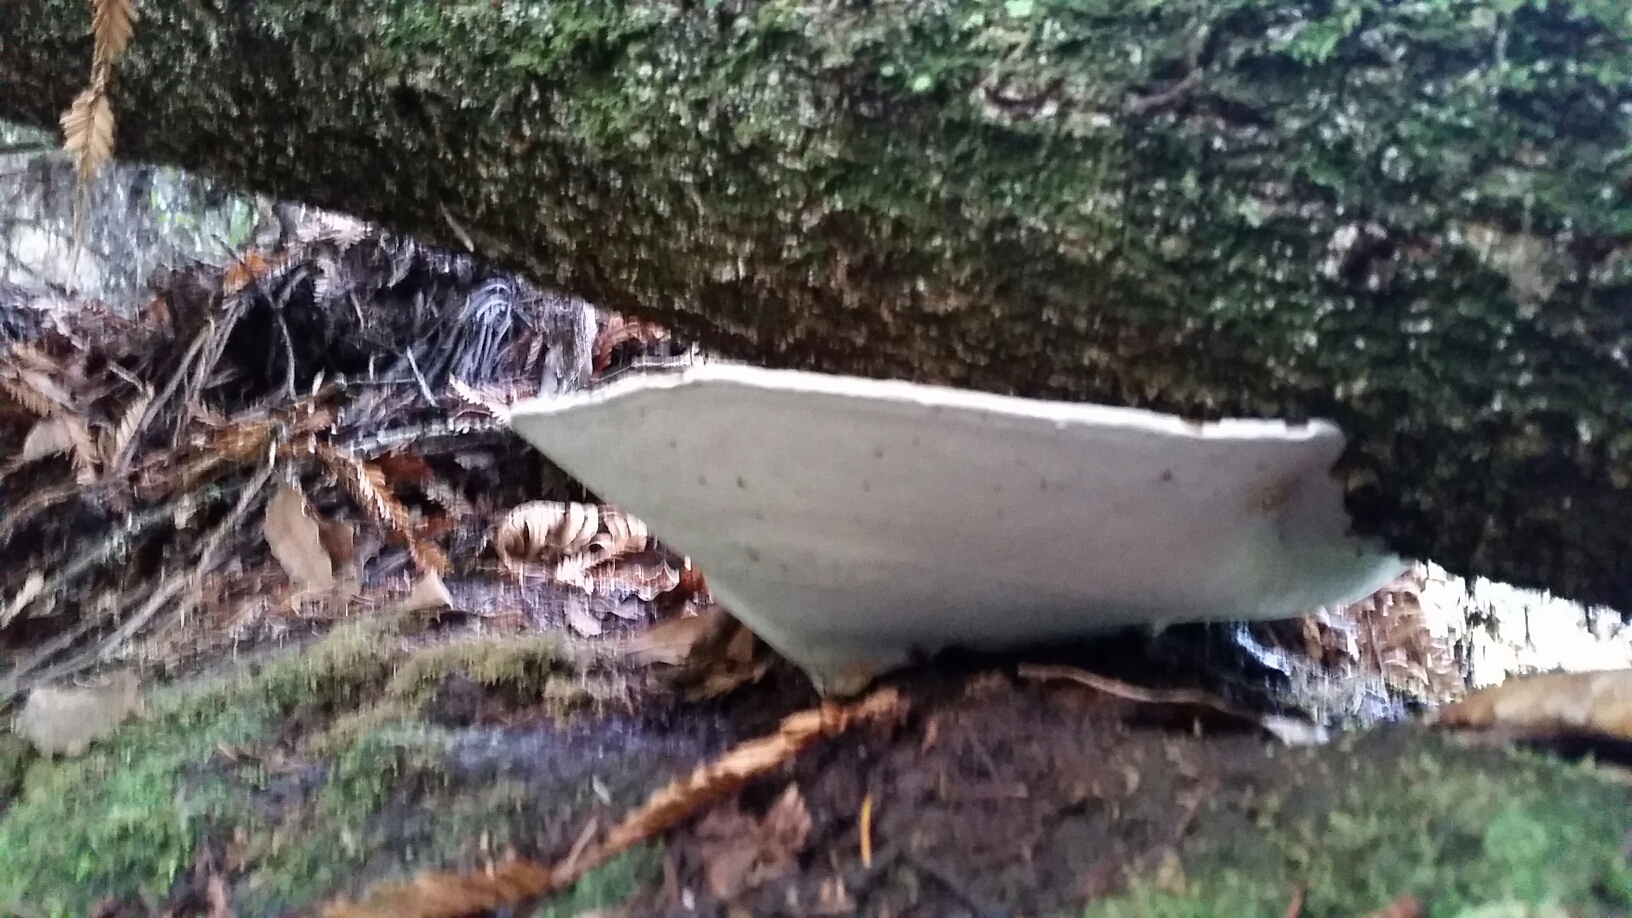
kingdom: Fungi
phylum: Basidiomycota
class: Agaricomycetes
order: Polyporales
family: Polyporaceae
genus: Ganoderma
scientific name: Ganoderma brownii
